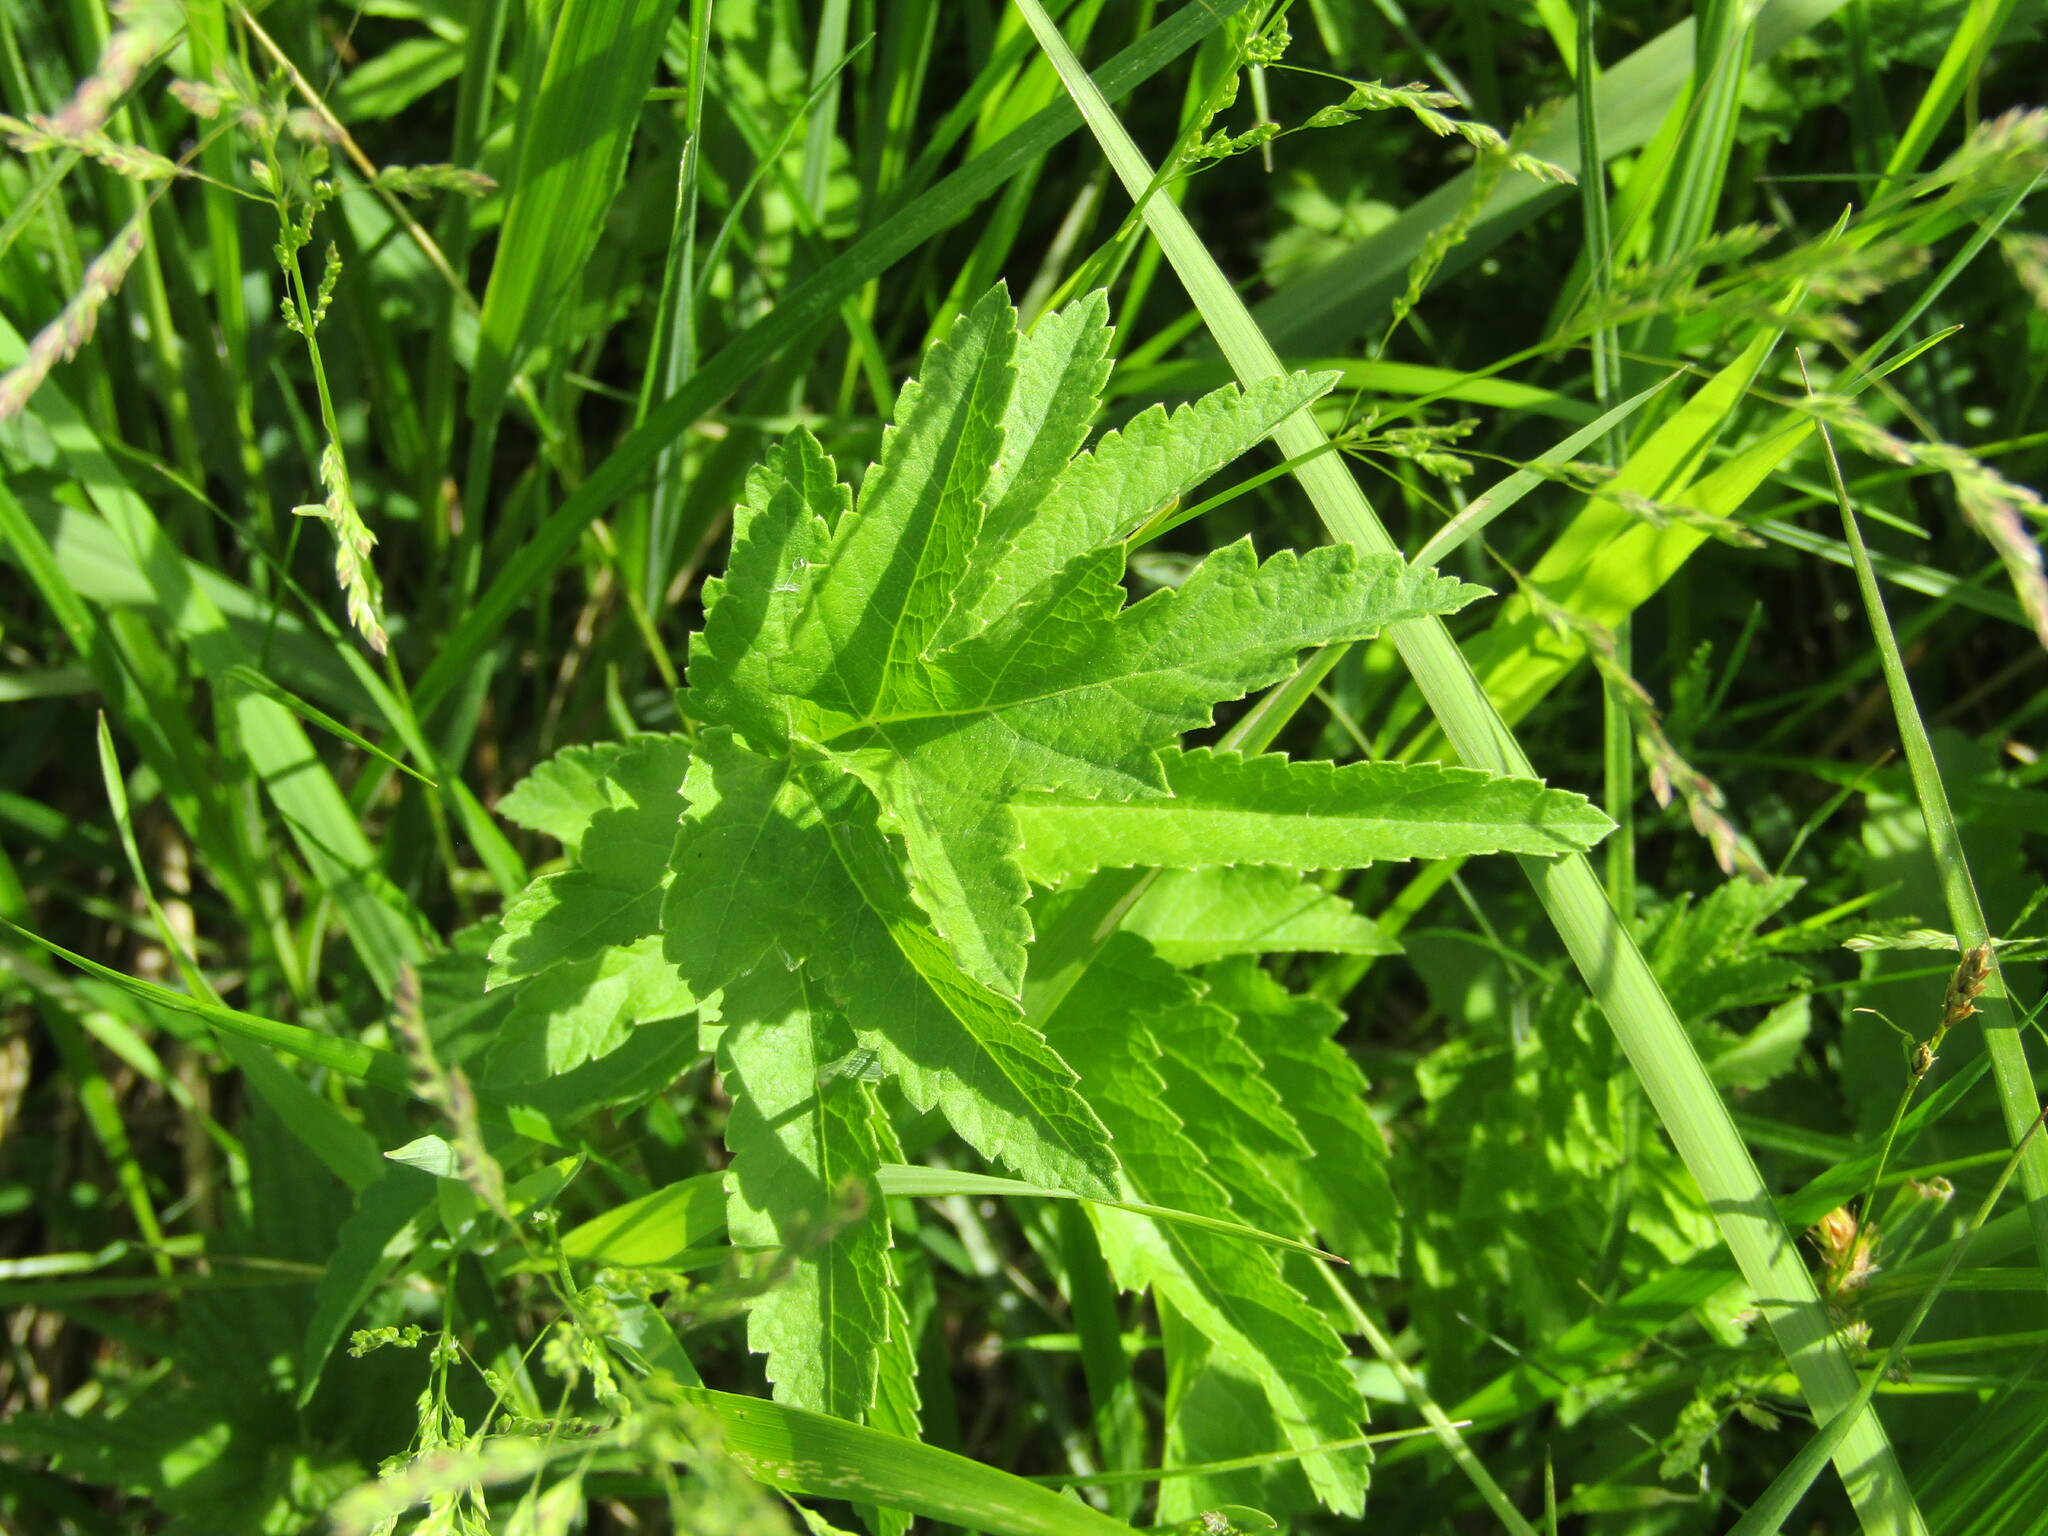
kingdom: Plantae
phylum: Tracheophyta
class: Magnoliopsida
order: Apiales
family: Apiaceae
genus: Pastinaca
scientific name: Pastinaca sativa
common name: Wild parsnip
